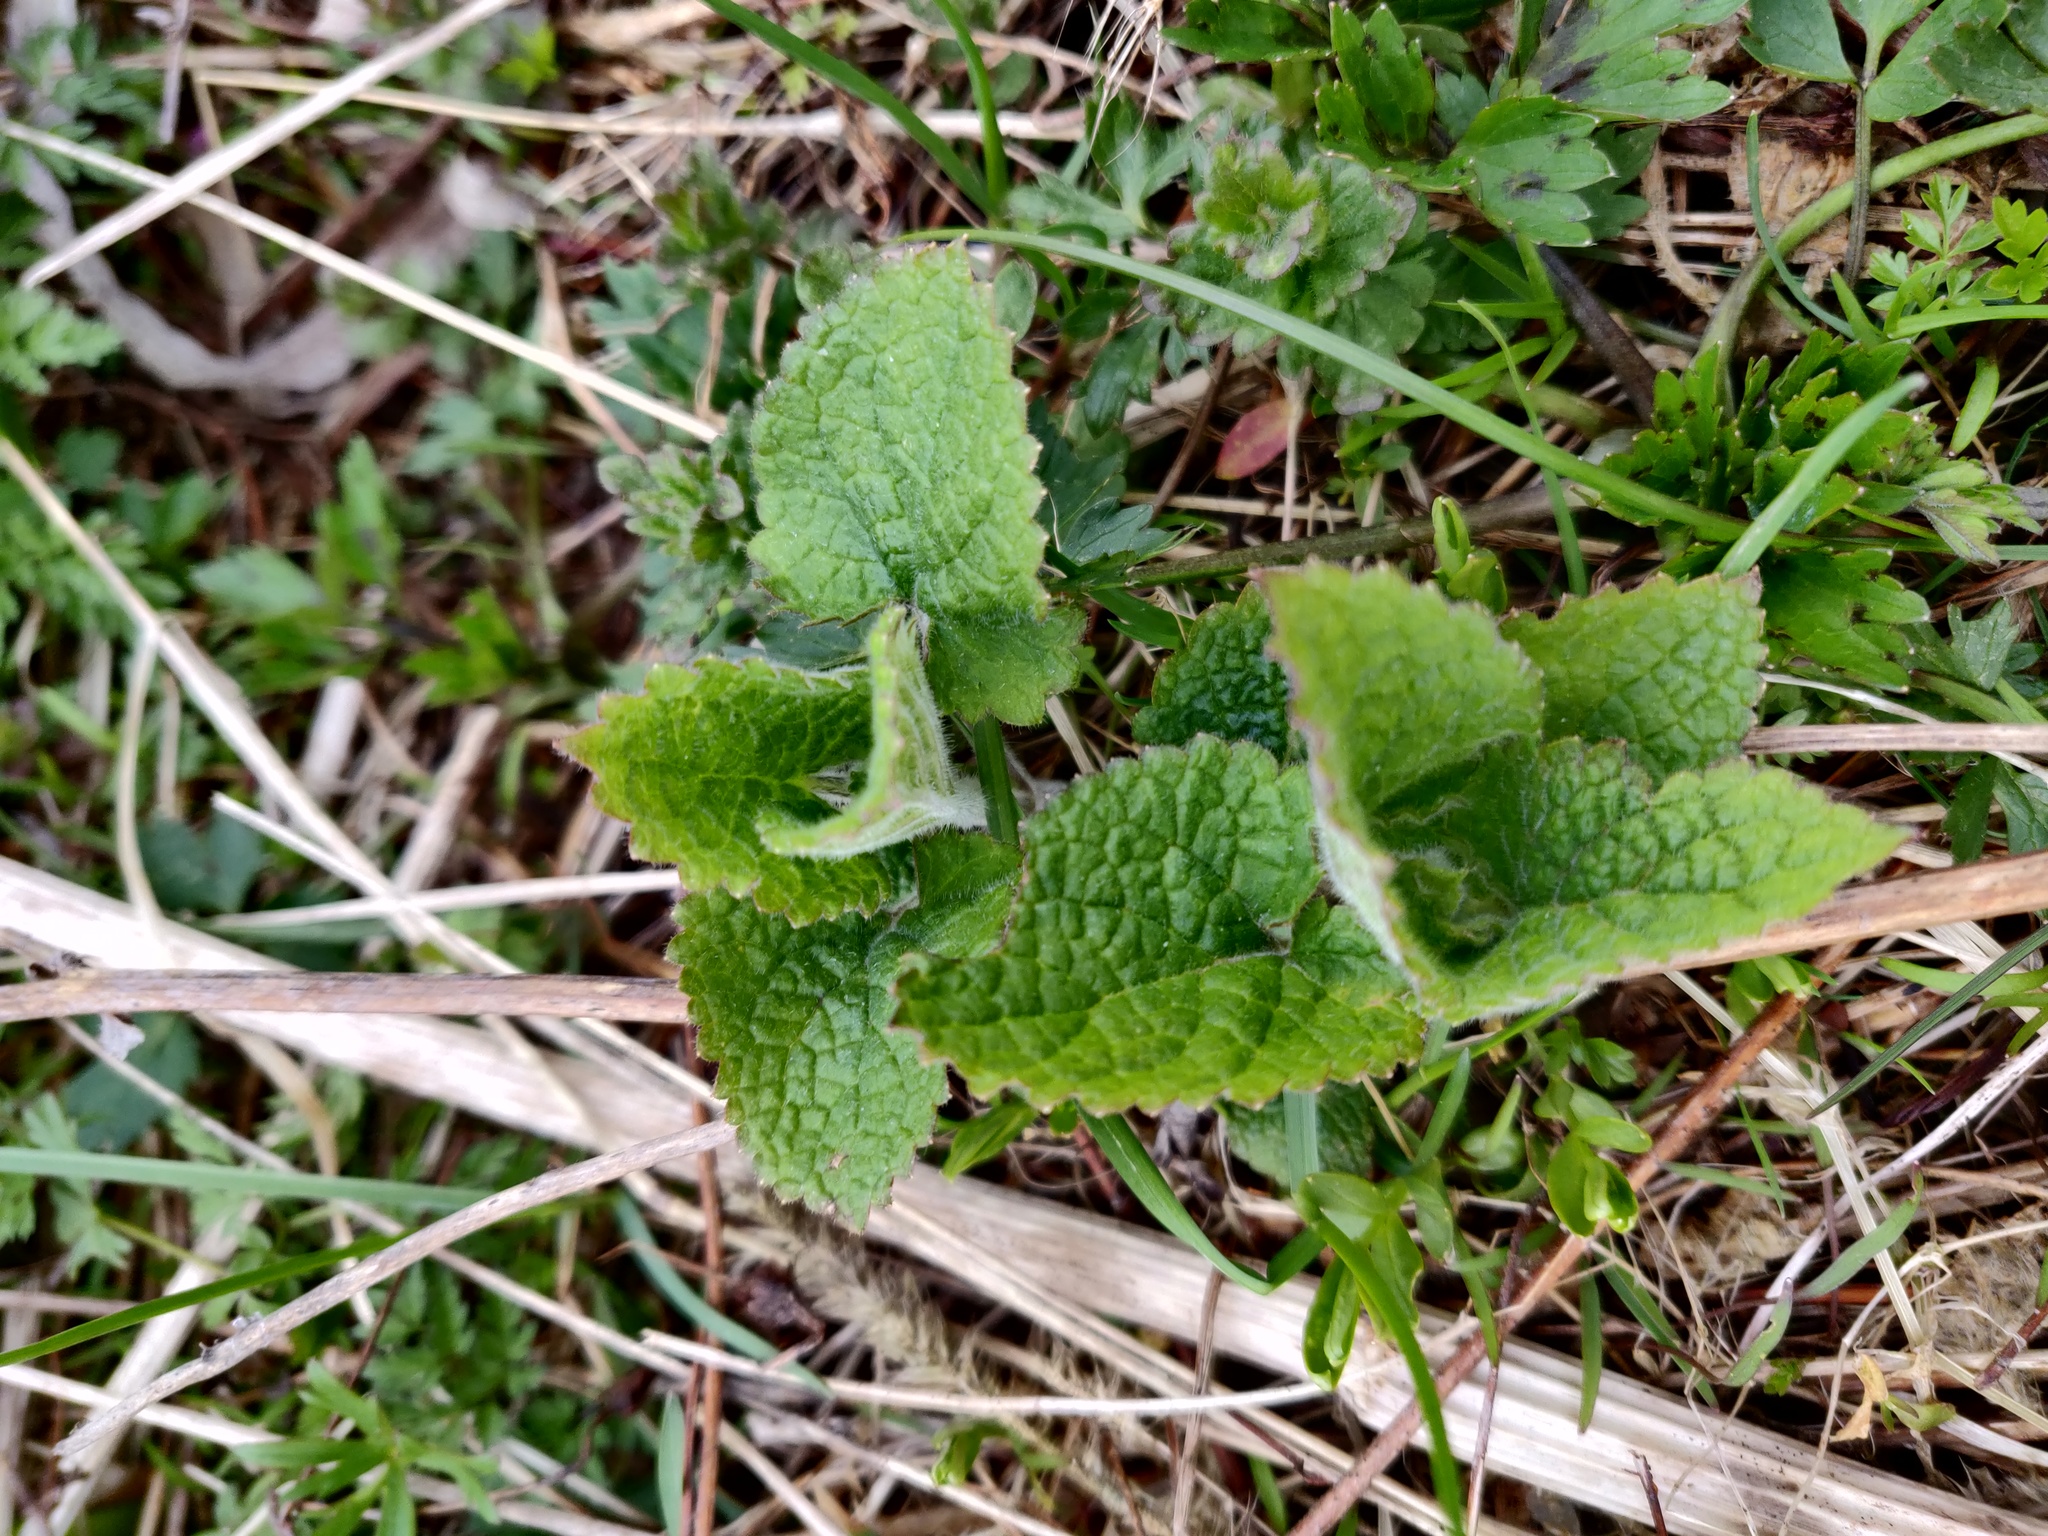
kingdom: Plantae
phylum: Tracheophyta
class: Magnoliopsida
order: Lamiales
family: Lamiaceae
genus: Stachys
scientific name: Stachys sylvatica
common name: Hedge woundwort
